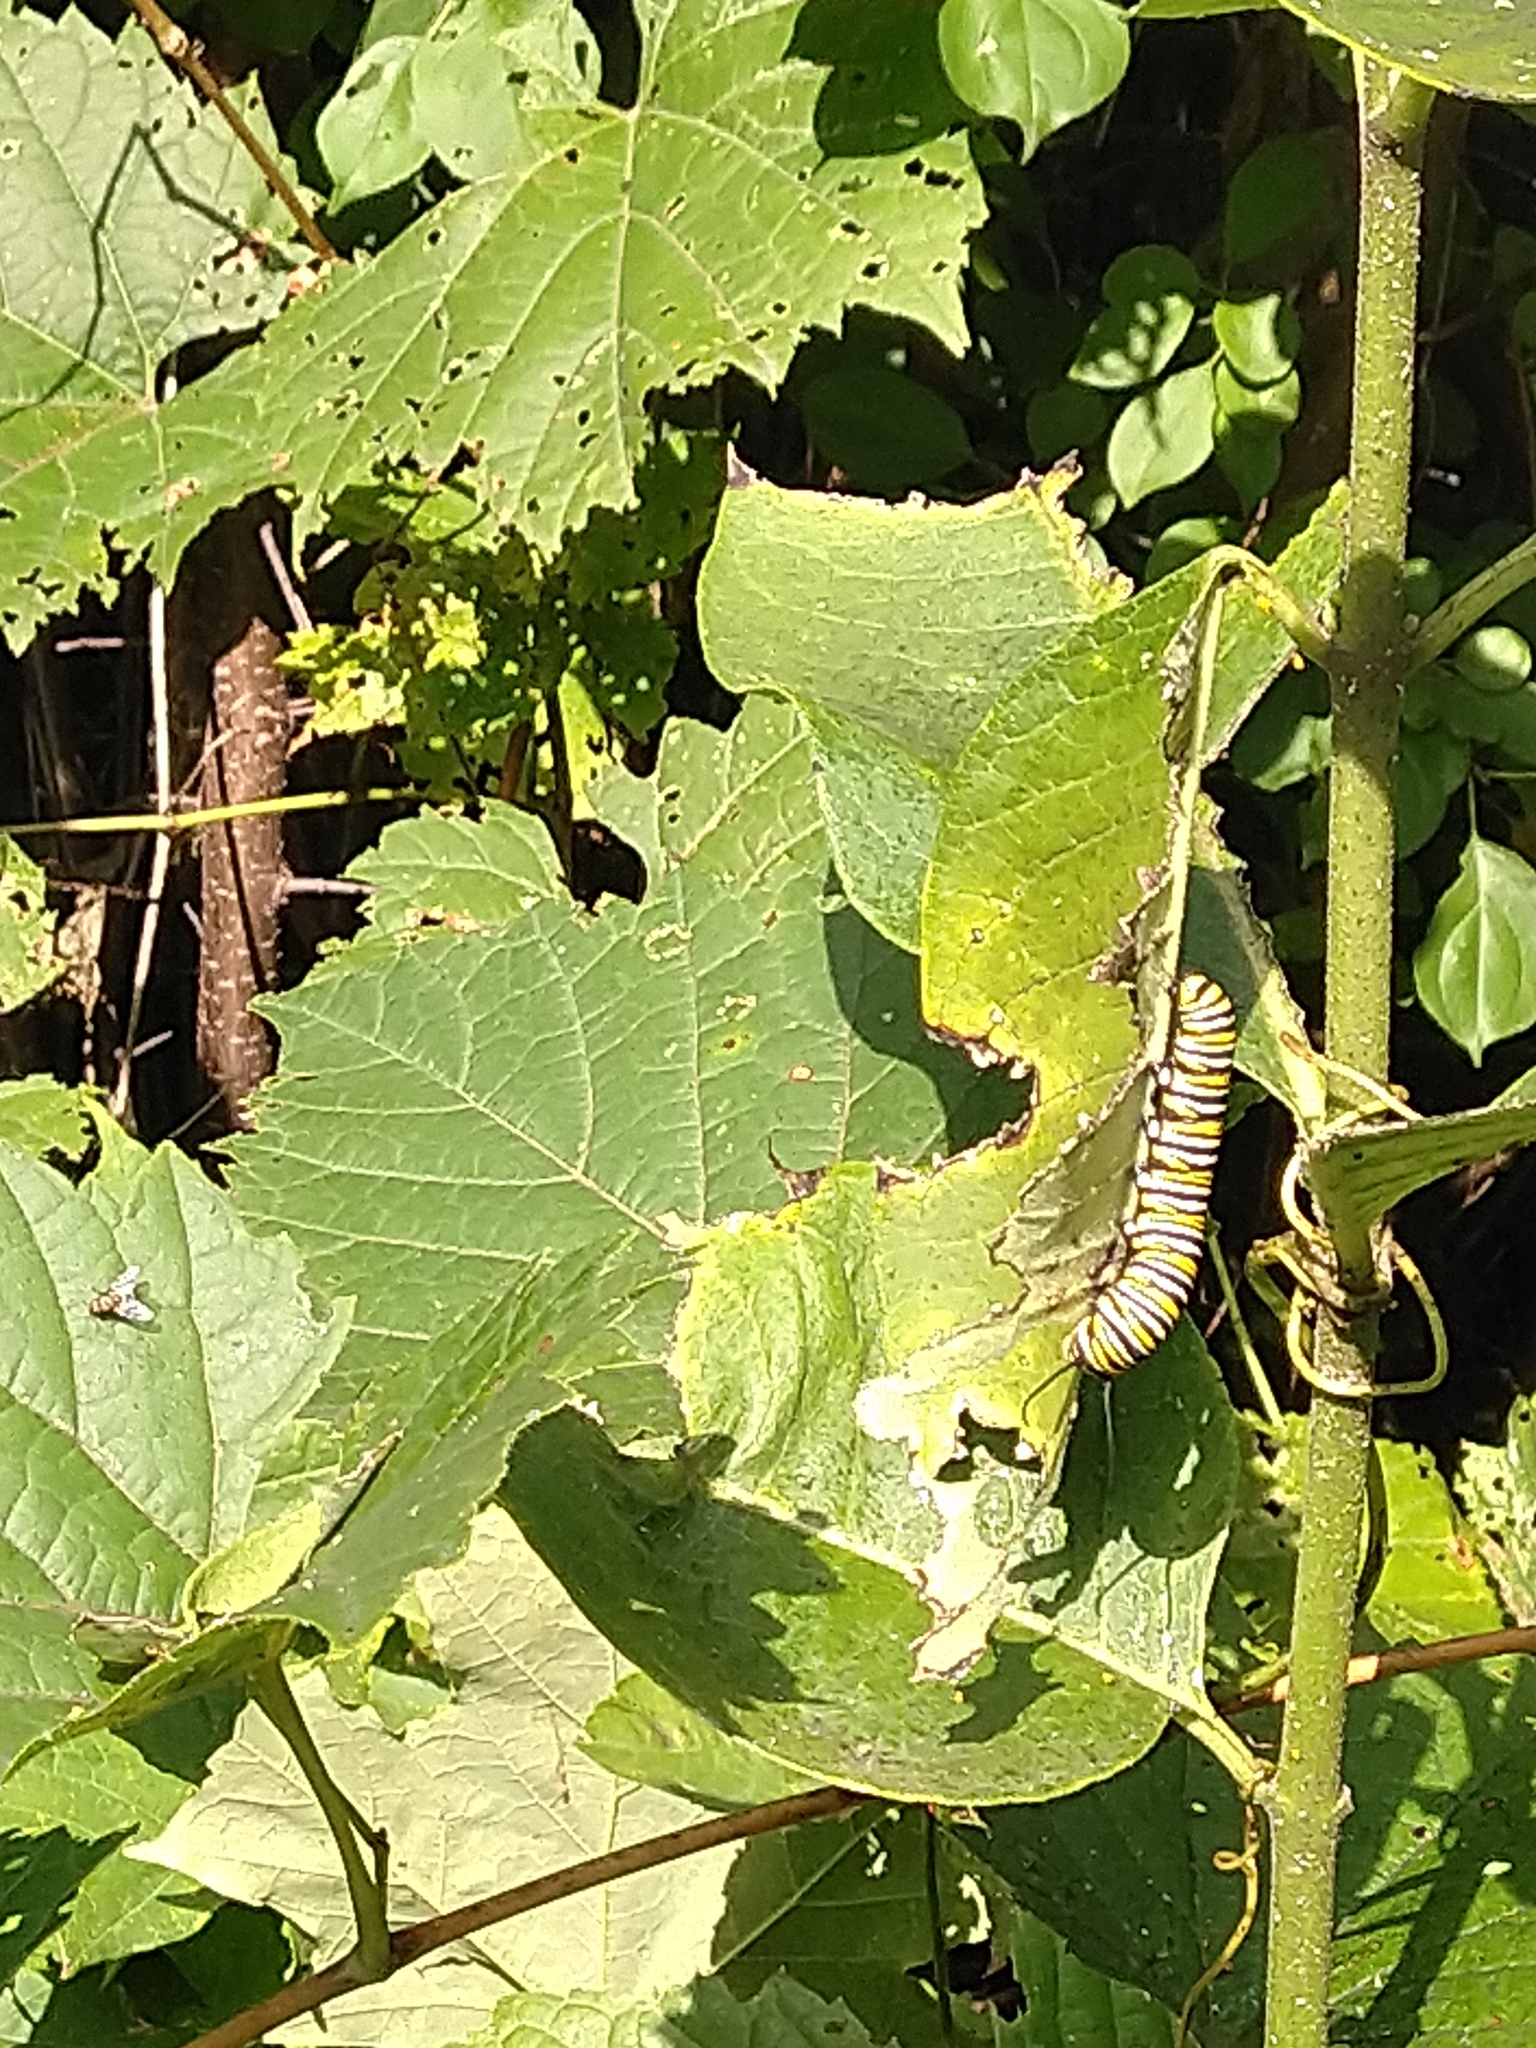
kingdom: Animalia
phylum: Arthropoda
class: Insecta
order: Lepidoptera
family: Nymphalidae
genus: Danaus
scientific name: Danaus plexippus
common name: Monarch
